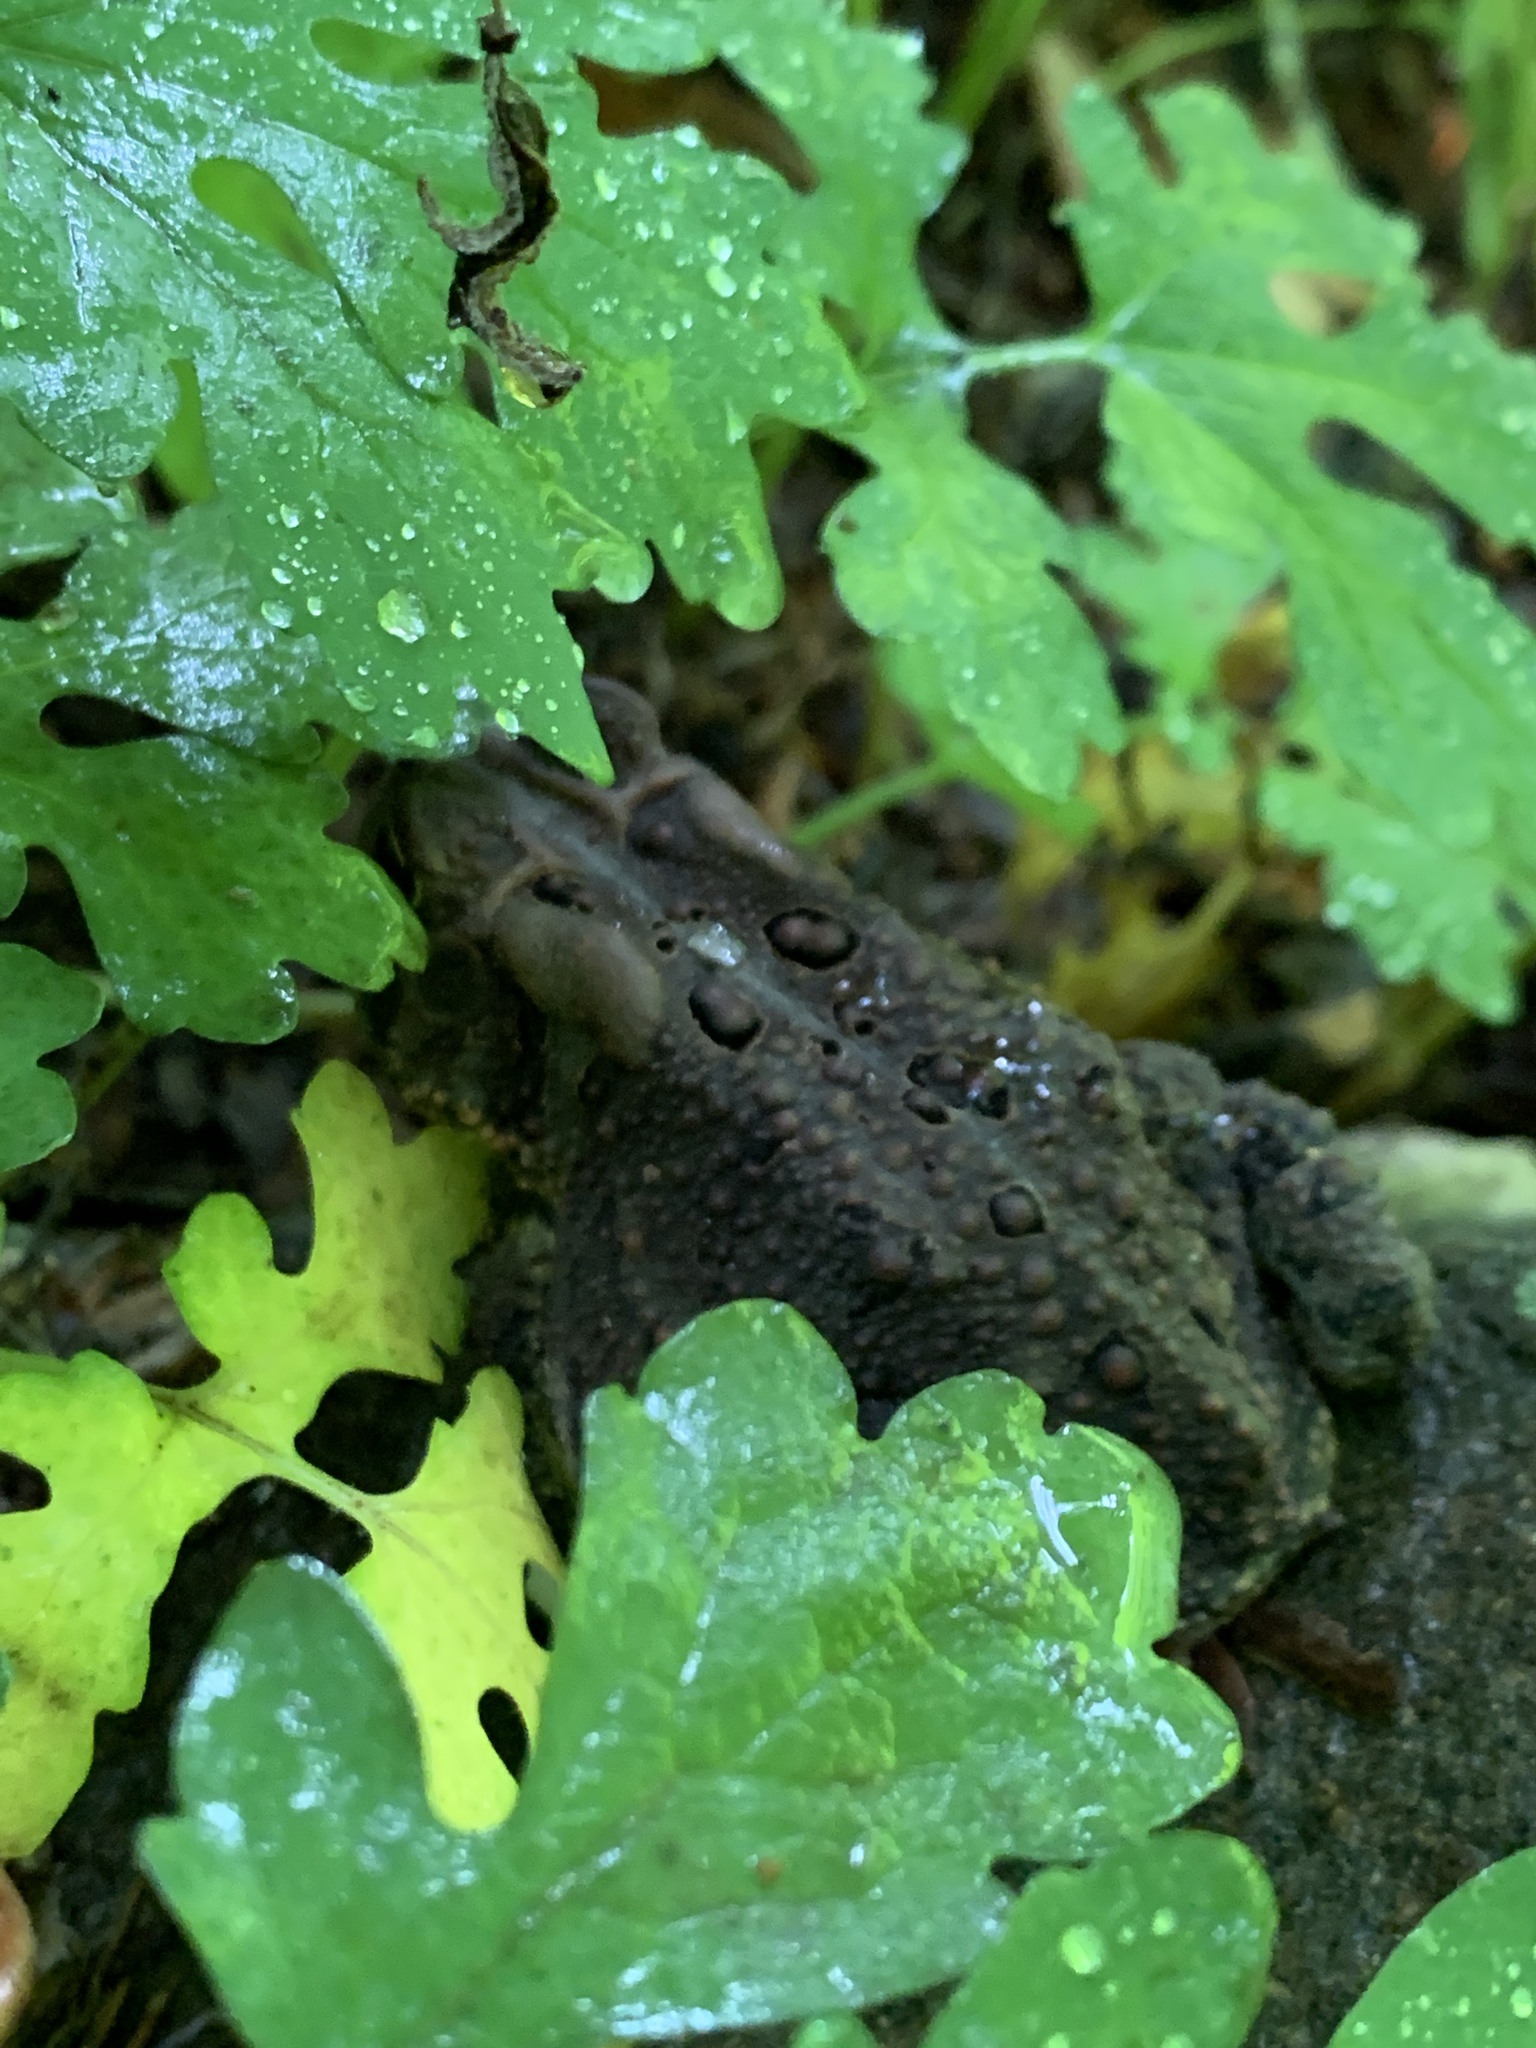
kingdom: Animalia
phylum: Chordata
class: Amphibia
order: Anura
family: Bufonidae
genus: Anaxyrus
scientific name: Anaxyrus americanus
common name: American toad
